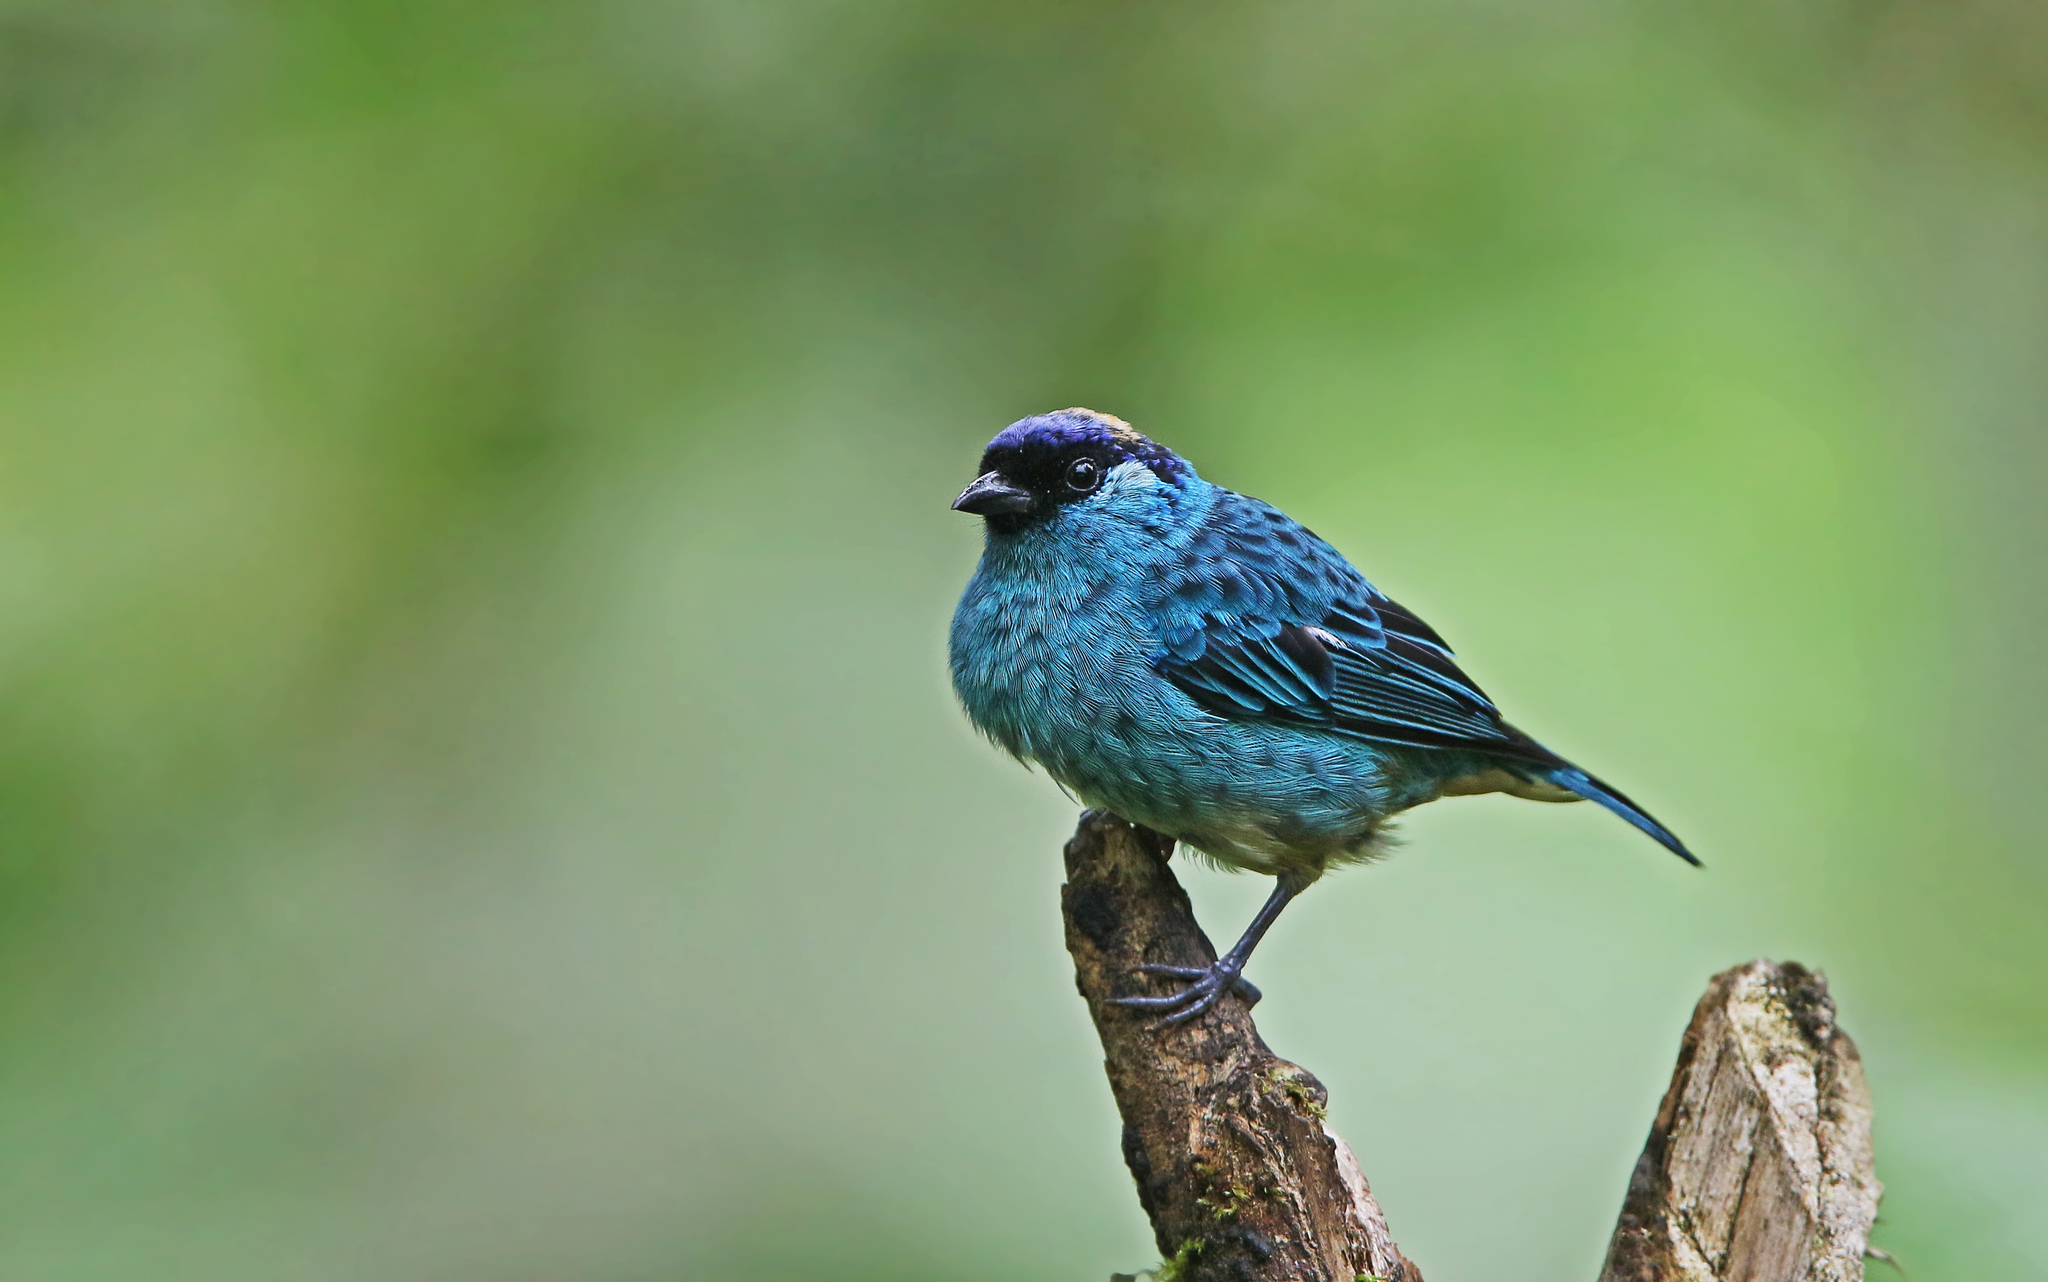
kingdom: Animalia
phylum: Chordata
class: Aves
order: Passeriformes
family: Thraupidae
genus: Chalcothraupis
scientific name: Chalcothraupis ruficervix
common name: Golden-naped tanager
